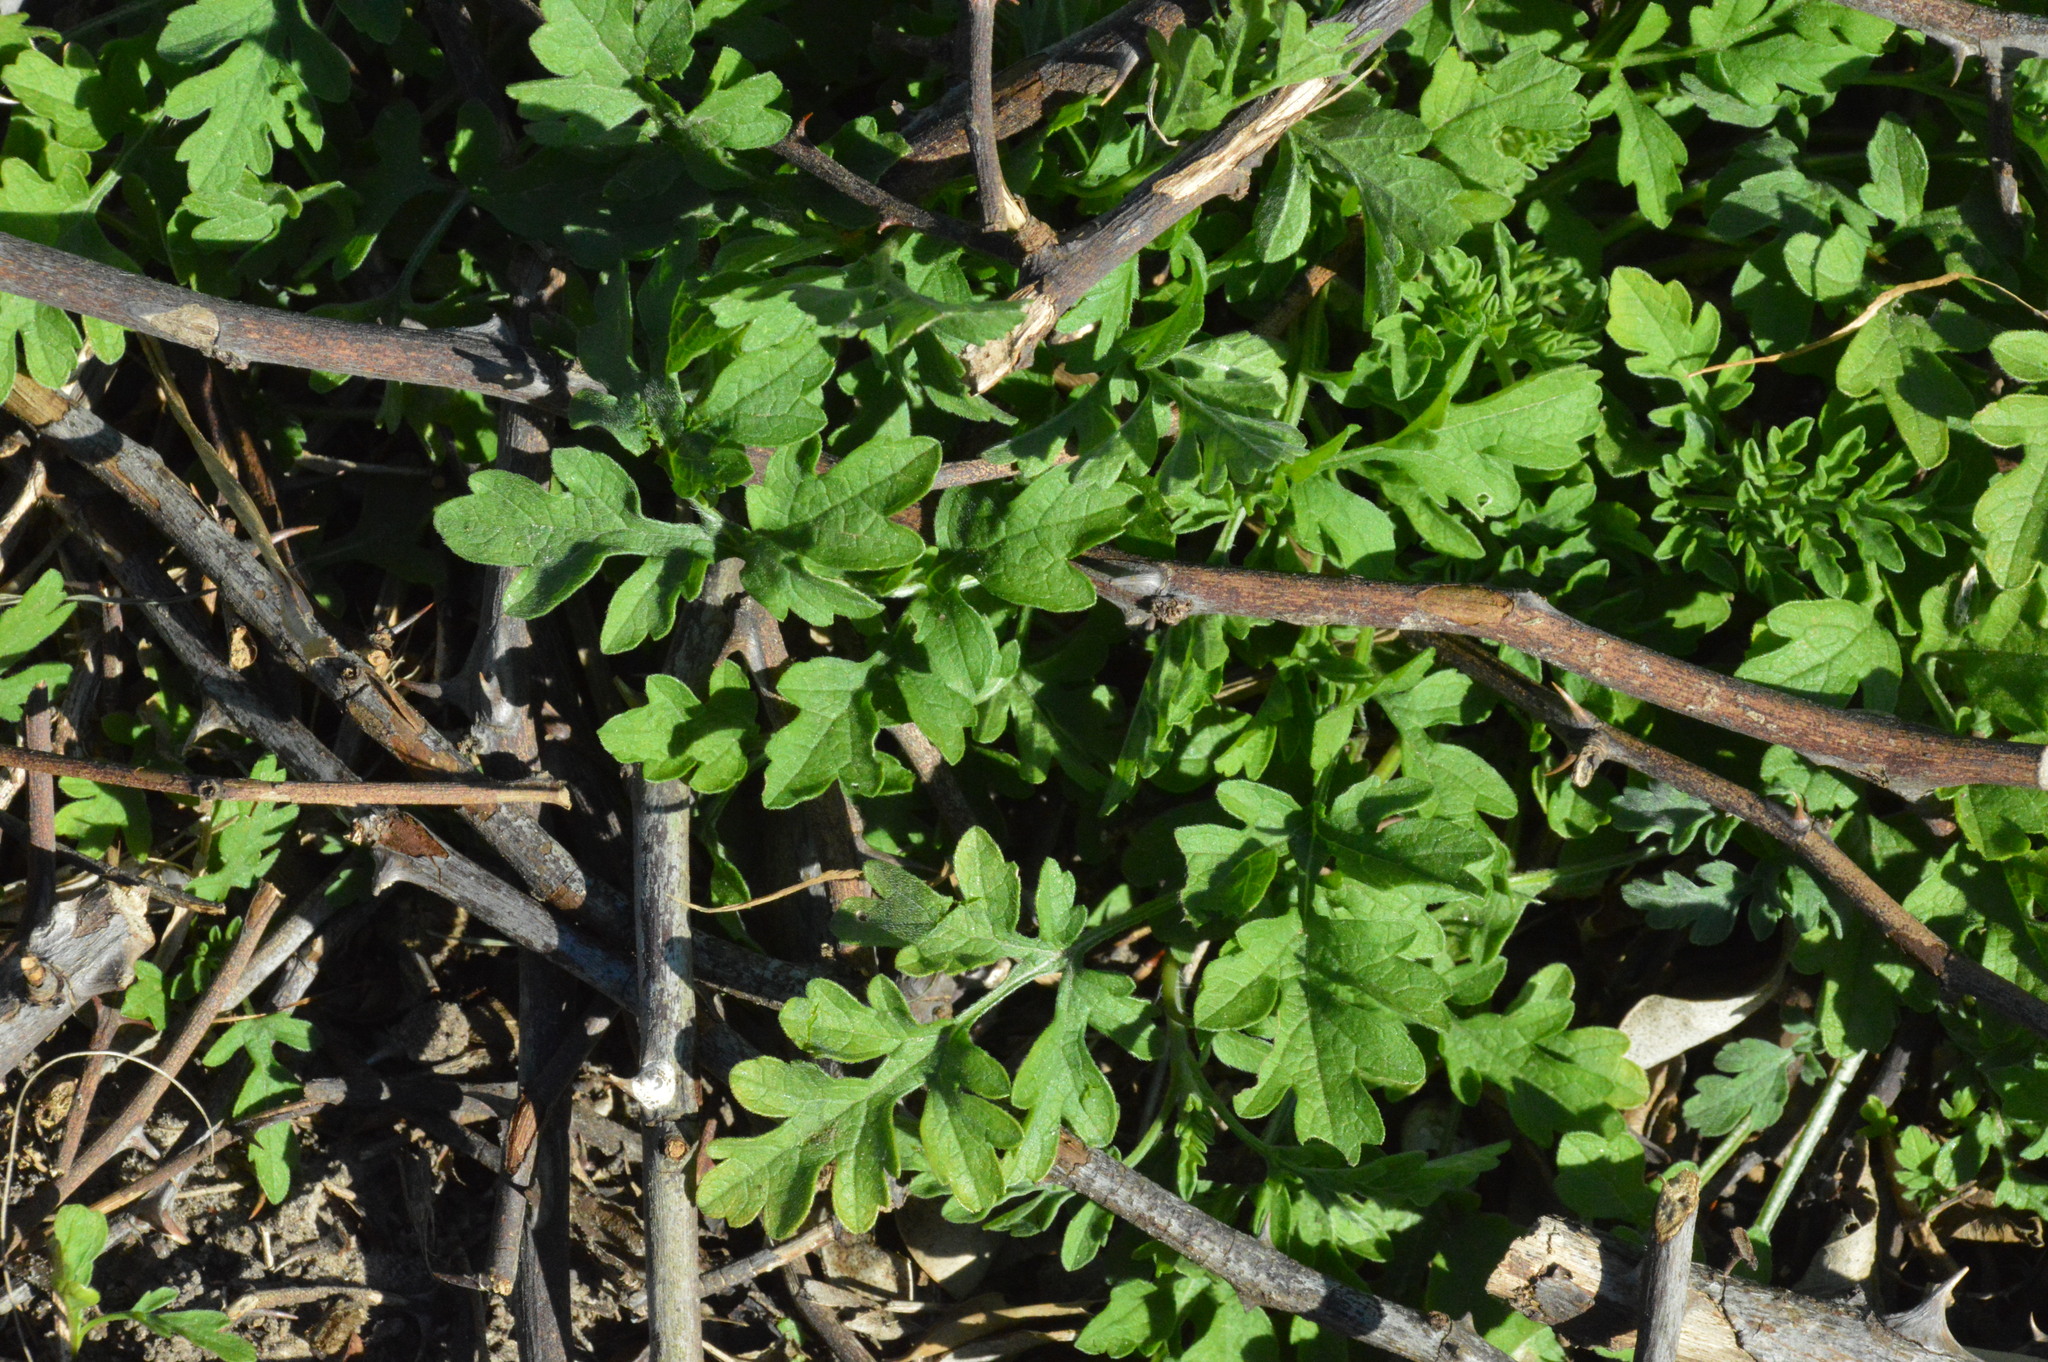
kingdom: Plantae
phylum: Tracheophyta
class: Magnoliopsida
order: Asterales
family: Asteraceae
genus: Ambrosia
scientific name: Ambrosia psilostachya
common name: Perennial ragweed
